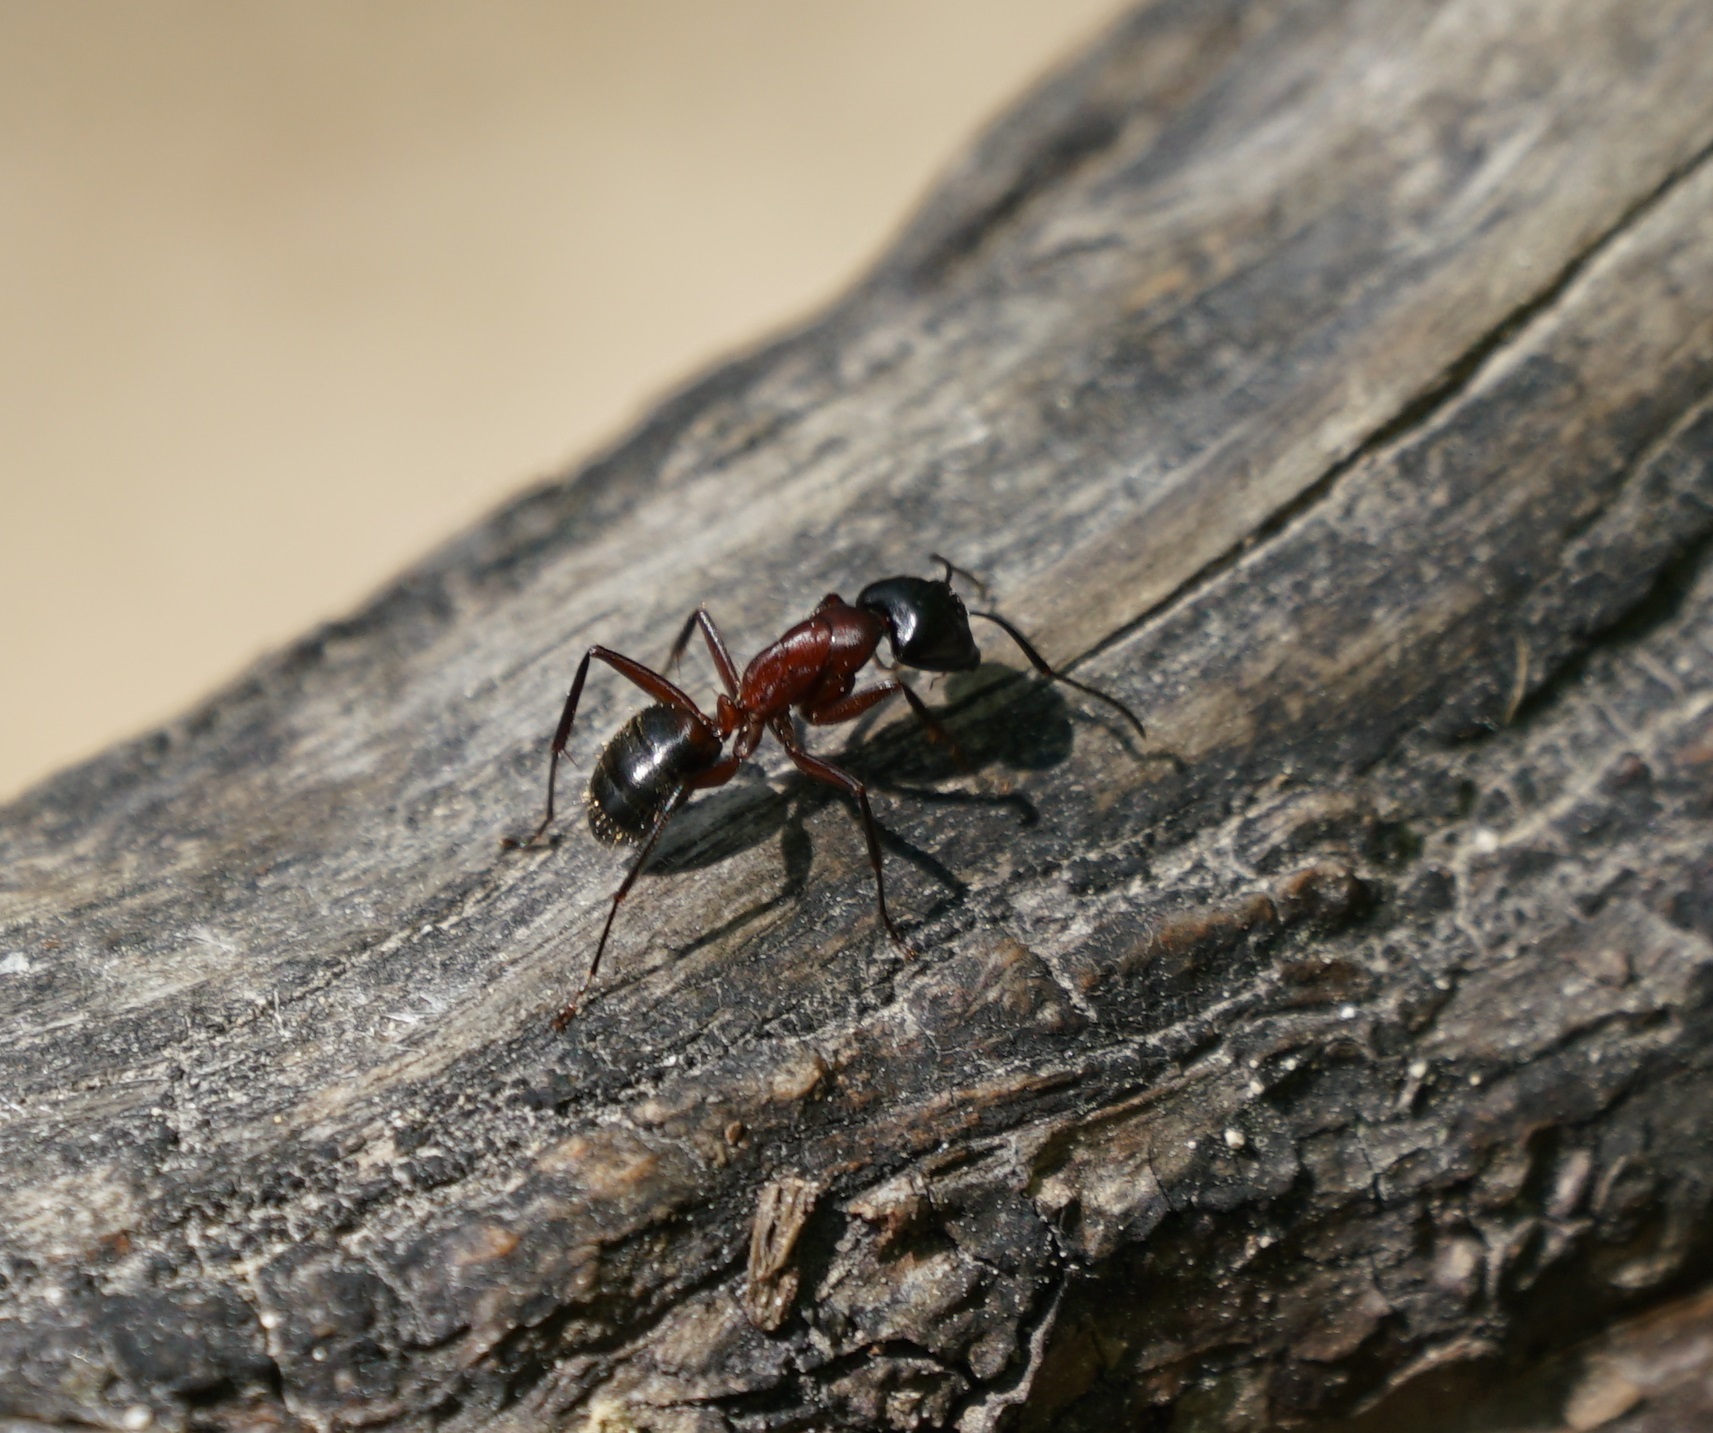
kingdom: Animalia
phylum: Arthropoda
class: Insecta
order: Hymenoptera
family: Formicidae
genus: Camponotus
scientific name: Camponotus ligniperdus
